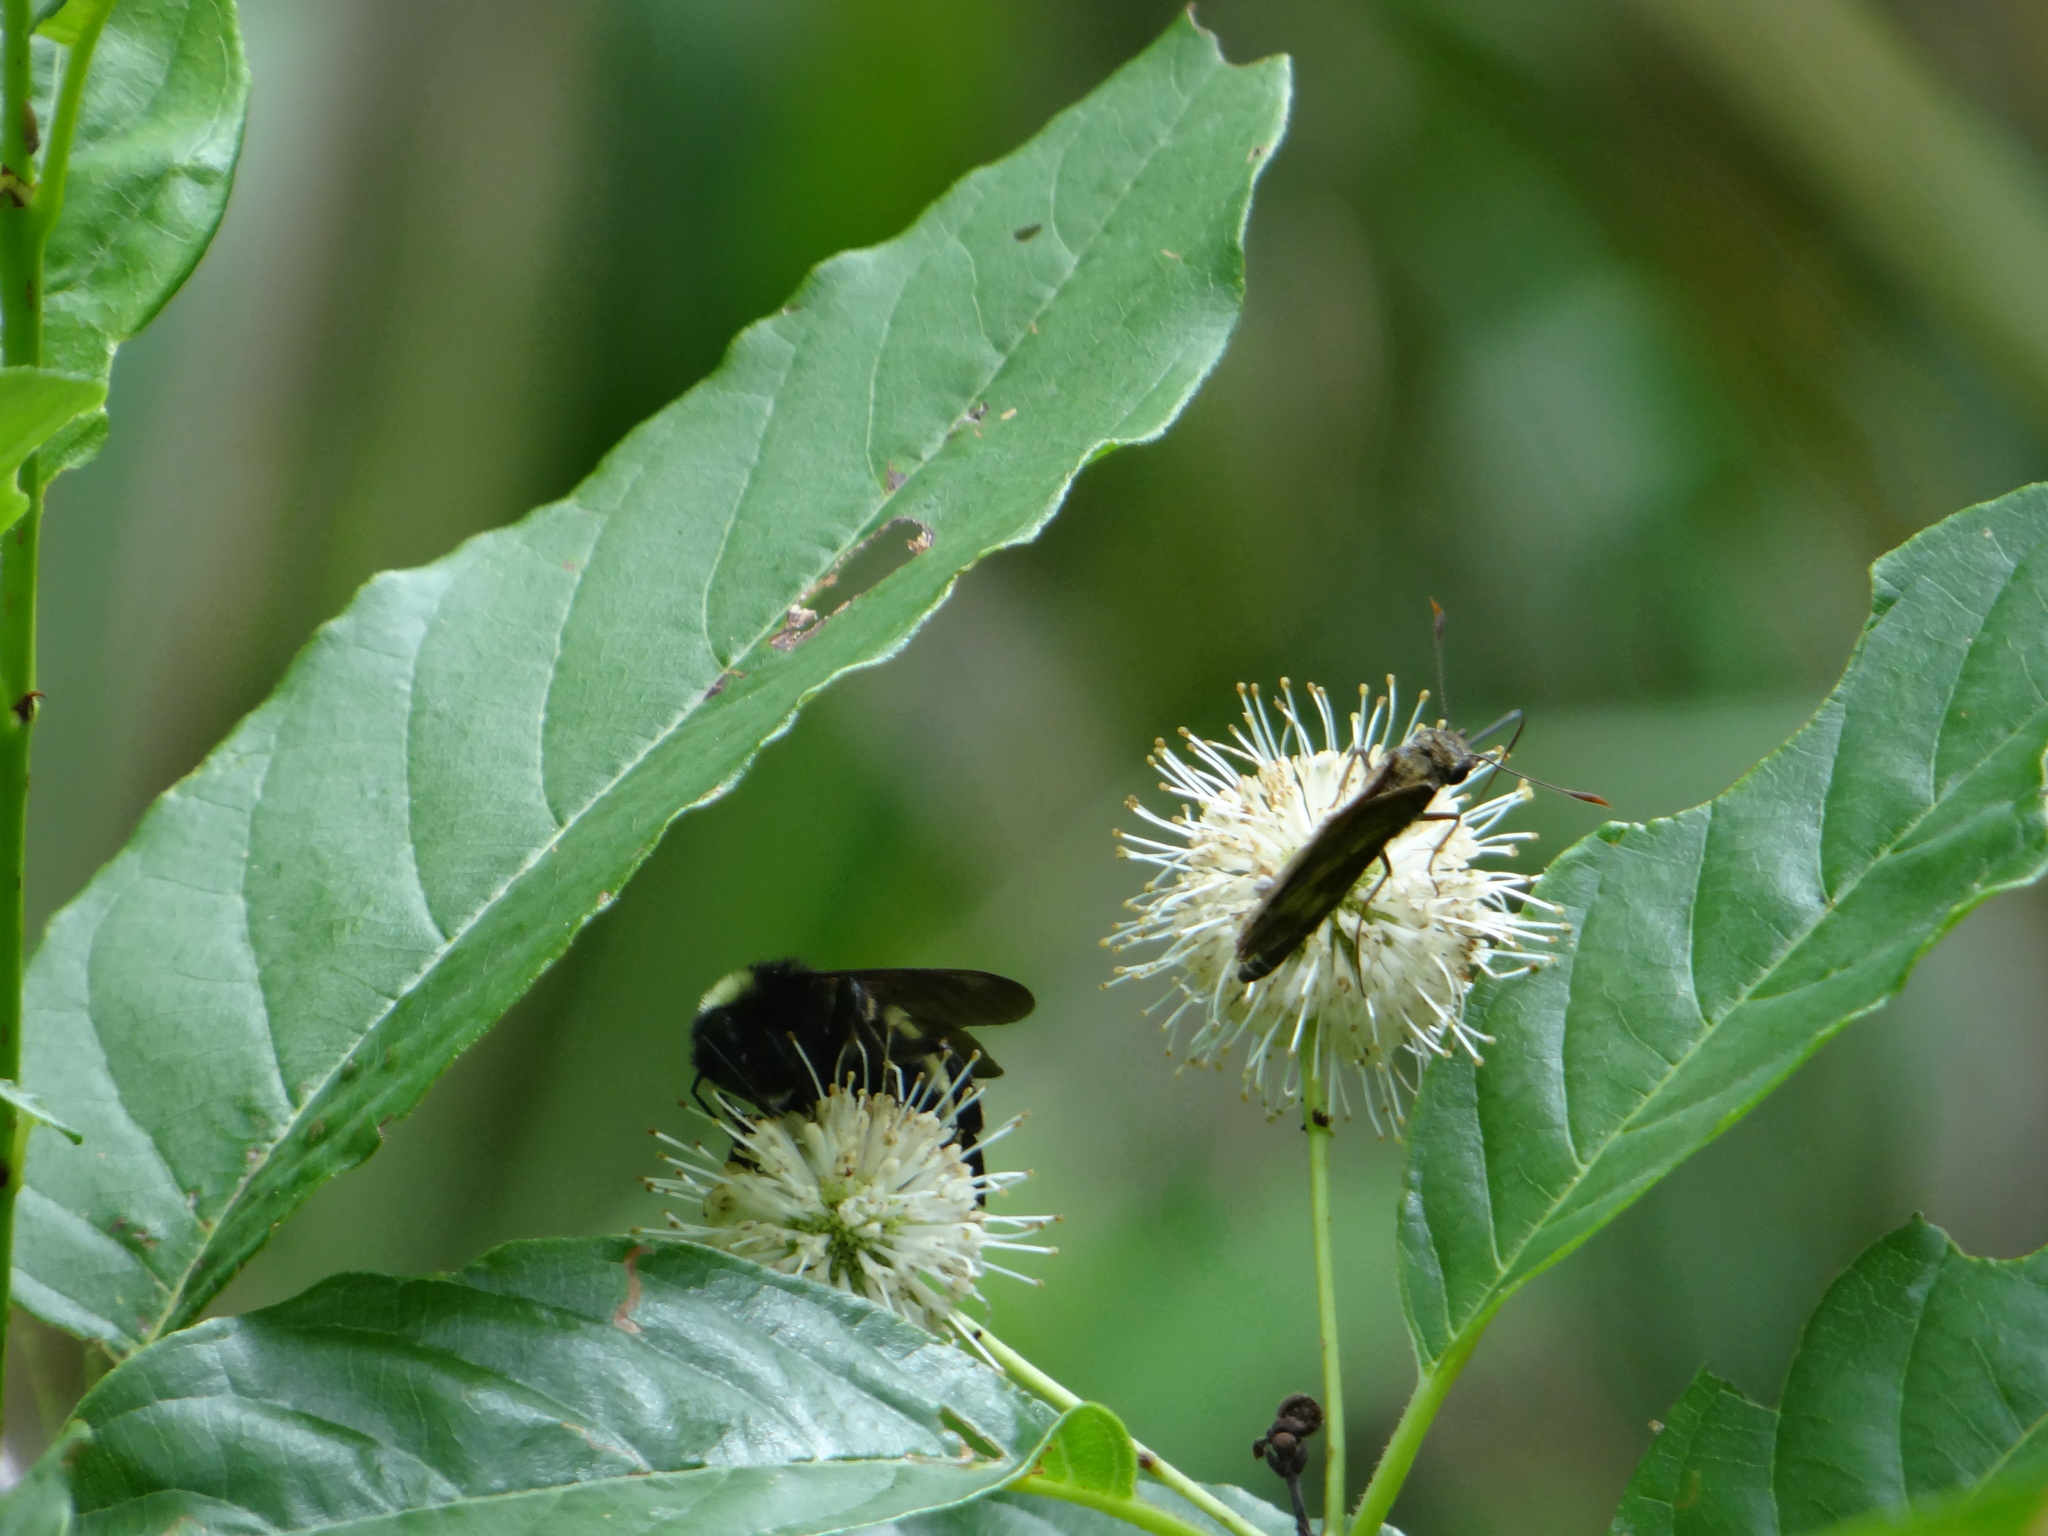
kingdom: Animalia
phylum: Arthropoda
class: Insecta
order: Hymenoptera
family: Apidae
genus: Bombus
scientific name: Bombus pensylvanicus
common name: Bumble bee
